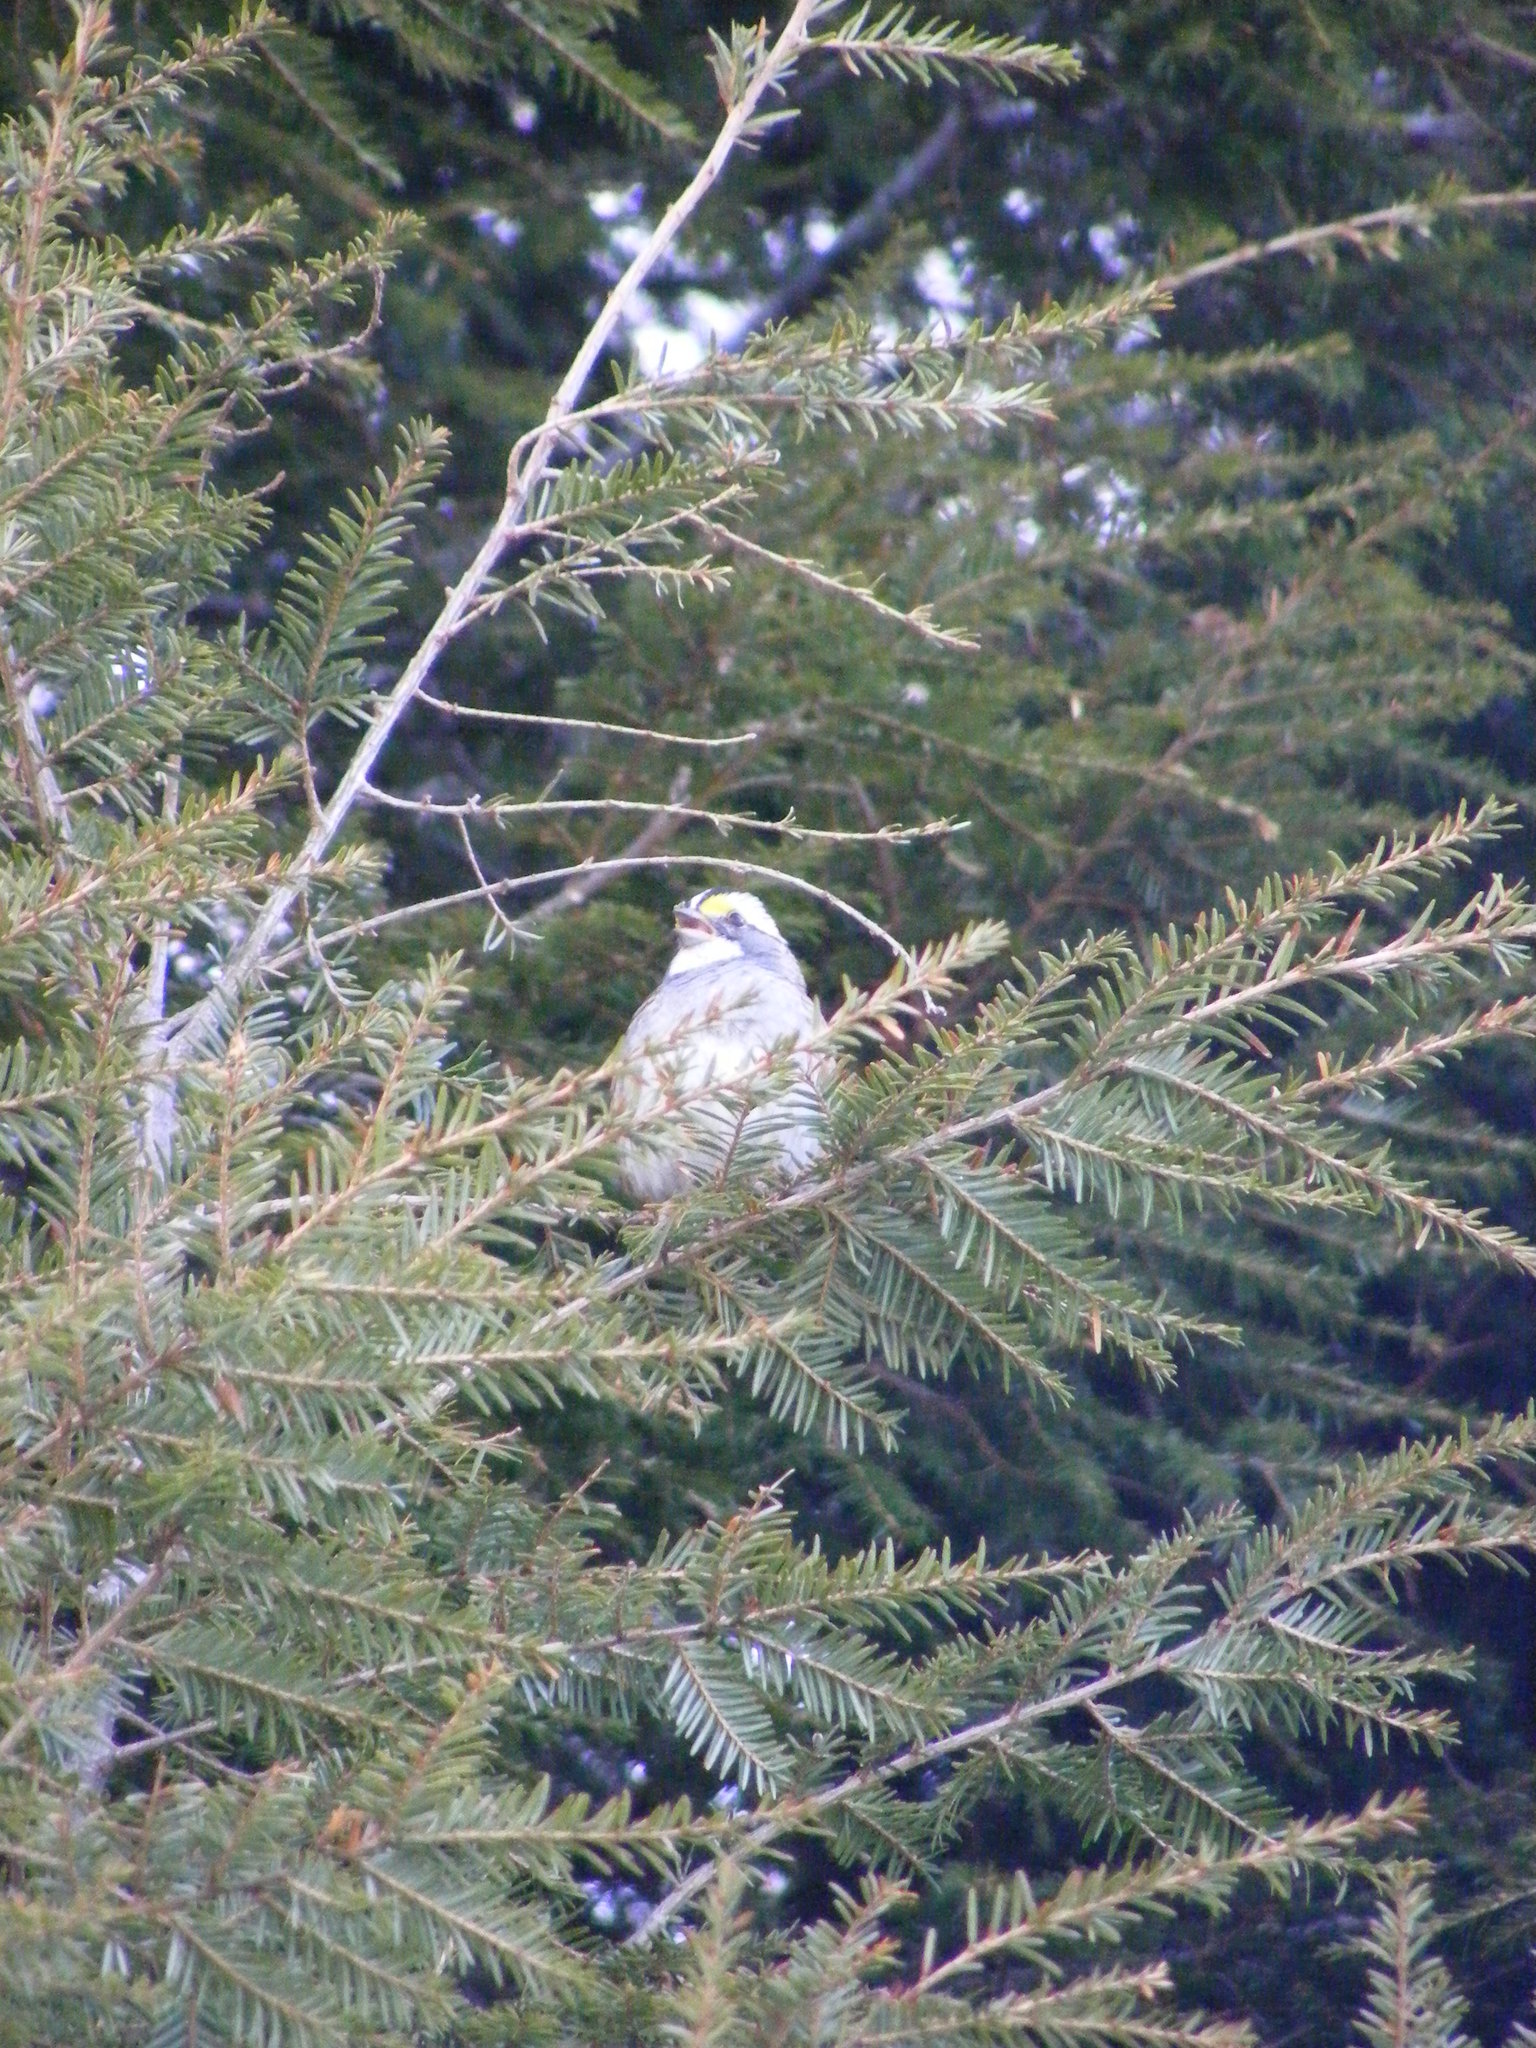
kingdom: Animalia
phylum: Chordata
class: Aves
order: Passeriformes
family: Passerellidae
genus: Zonotrichia
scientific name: Zonotrichia albicollis
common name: White-throated sparrow
